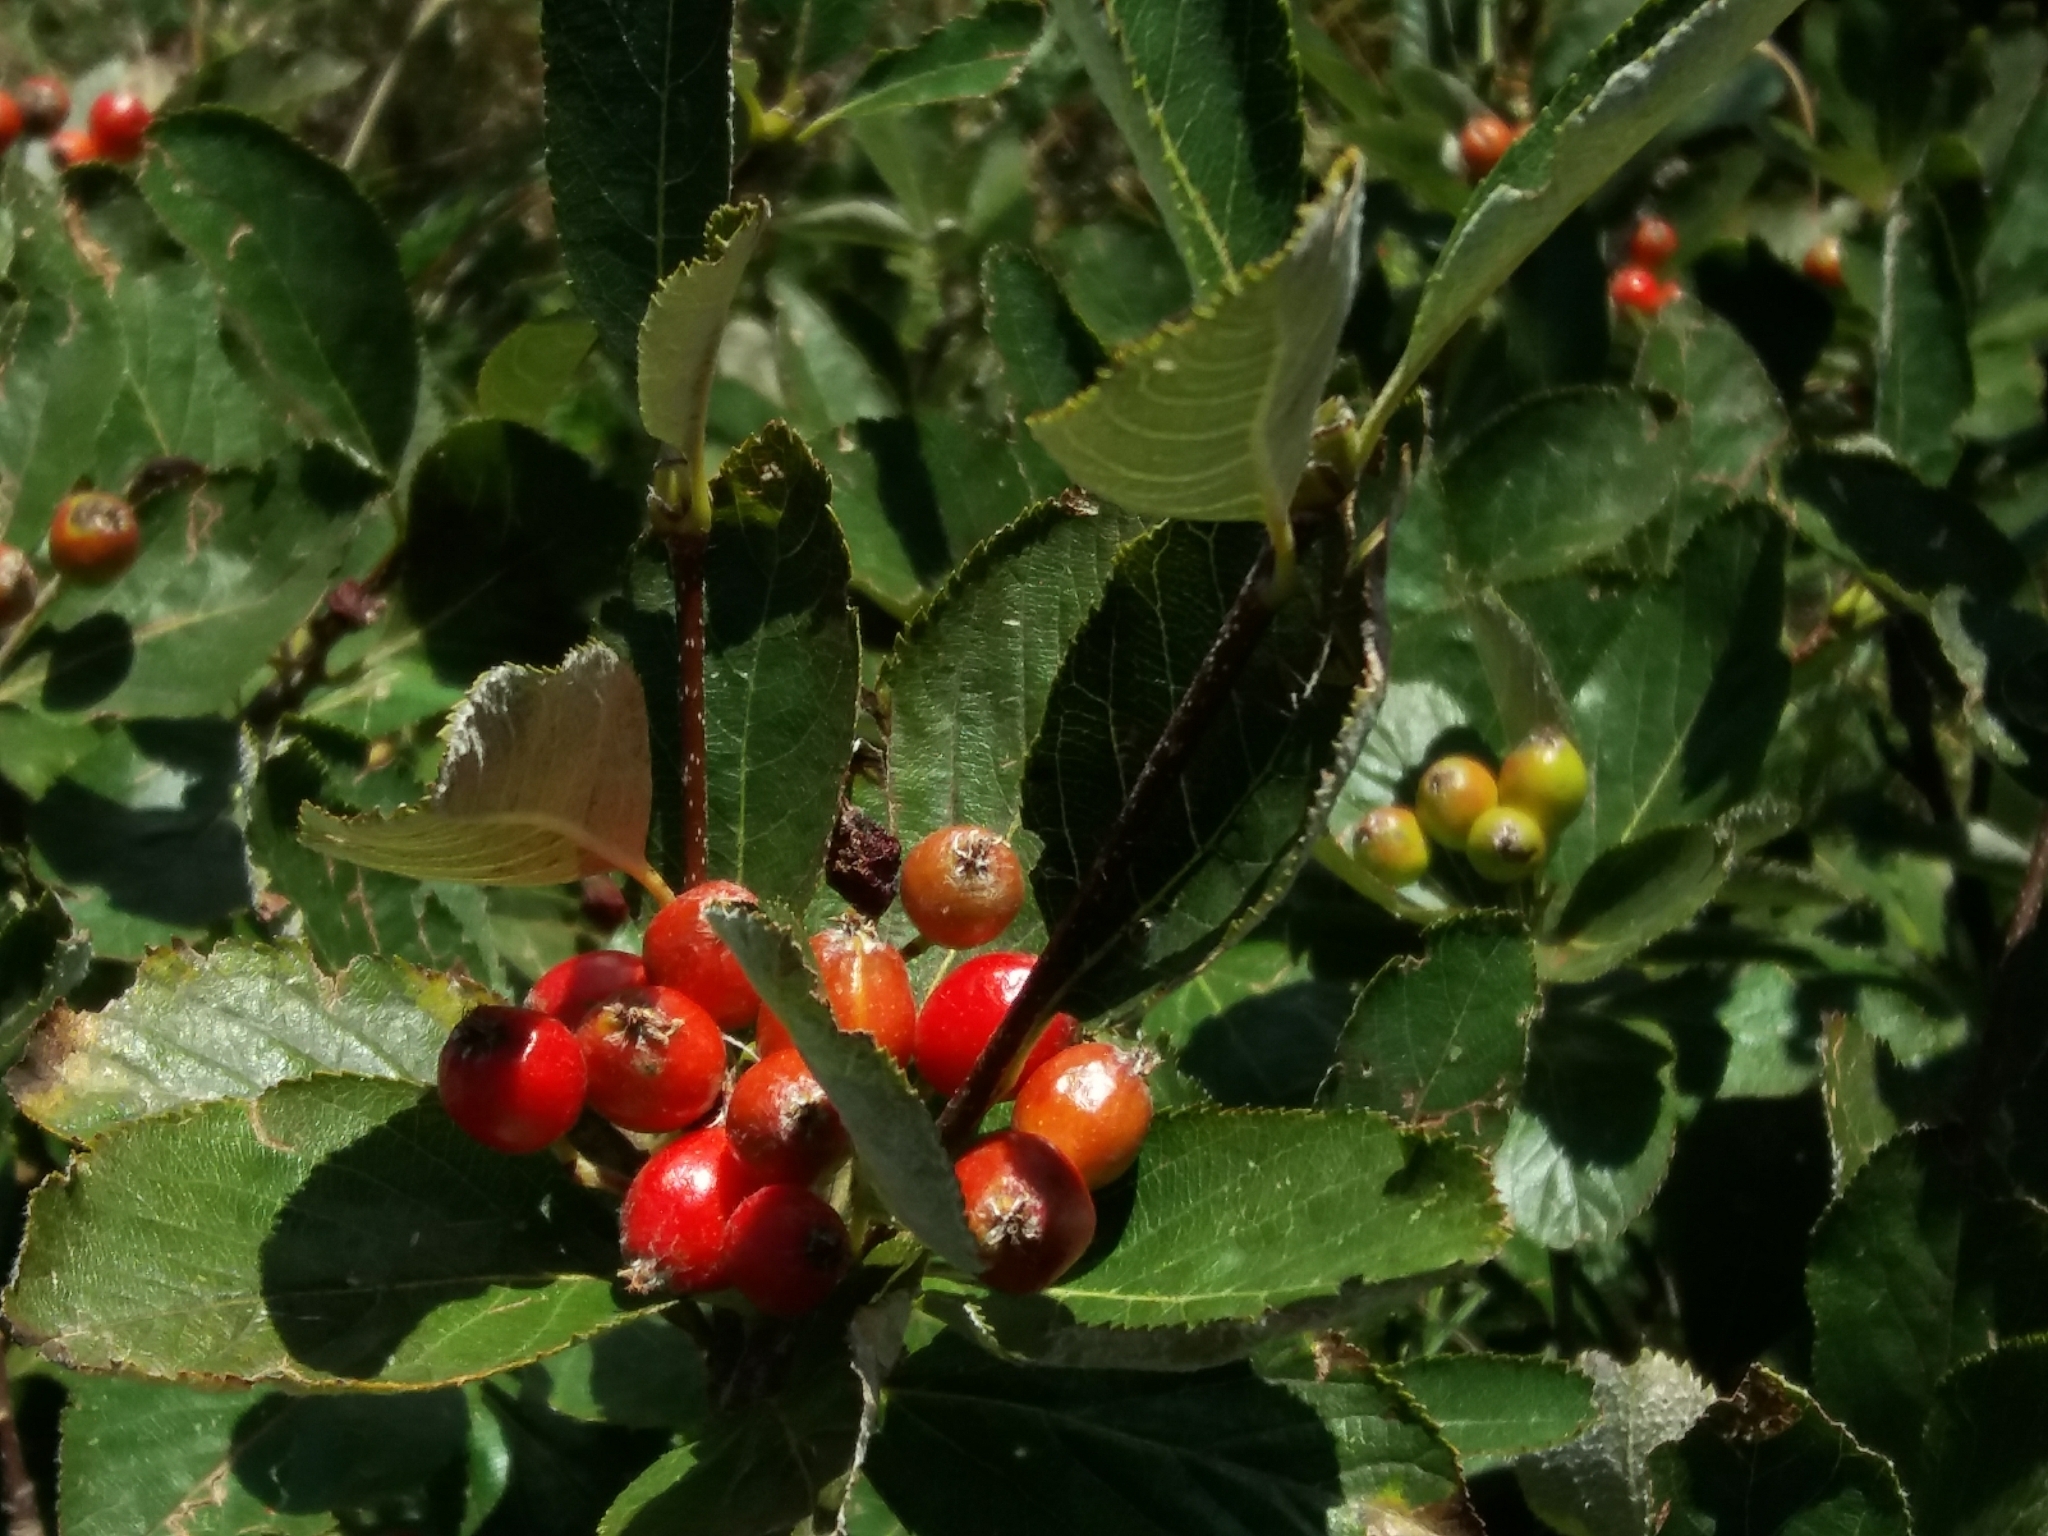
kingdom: Plantae
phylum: Tracheophyta
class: Magnoliopsida
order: Rosales
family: Rosaceae
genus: Chamaemespilus
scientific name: Chamaemespilus alpina
